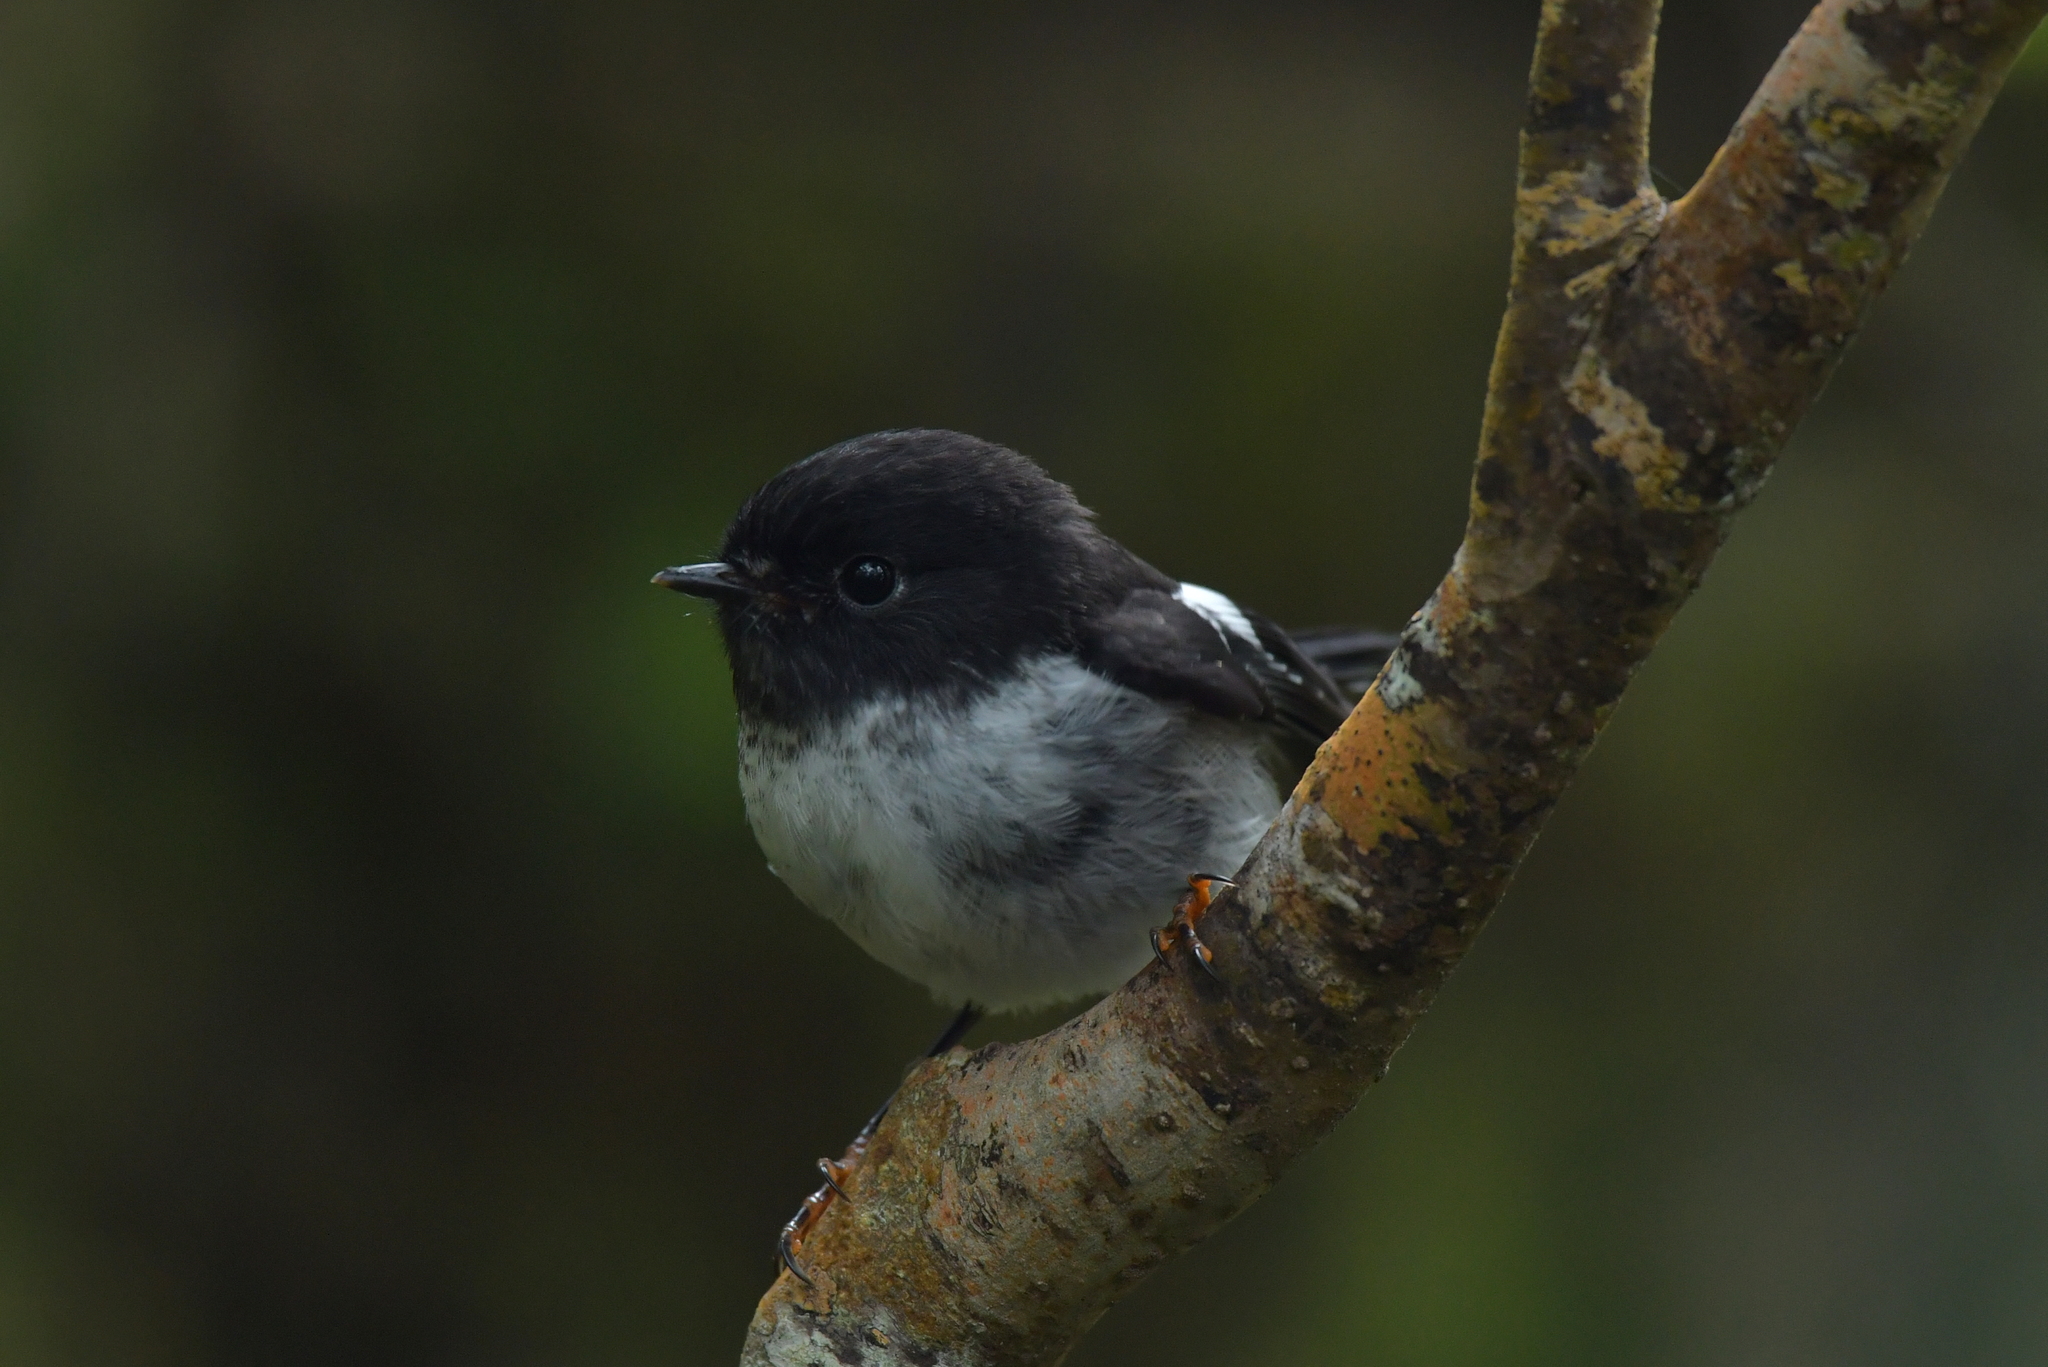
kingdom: Animalia
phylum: Chordata
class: Aves
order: Passeriformes
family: Petroicidae
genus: Petroica
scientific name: Petroica macrocephala
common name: Tomtit
